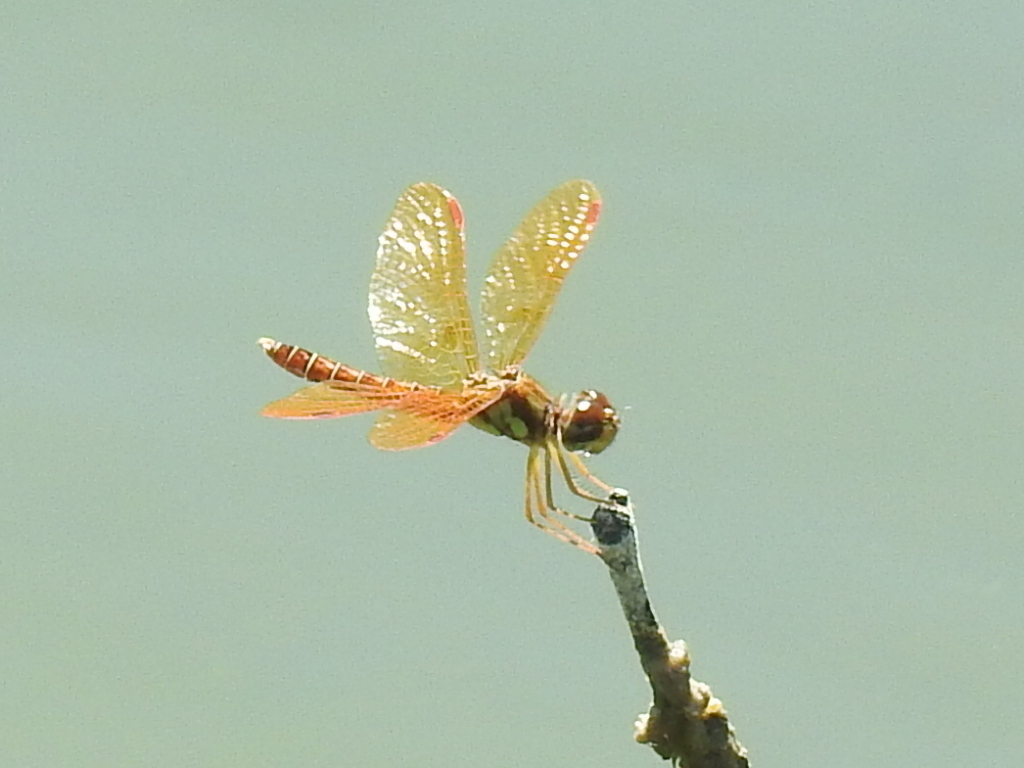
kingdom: Animalia
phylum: Arthropoda
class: Insecta
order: Odonata
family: Libellulidae
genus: Perithemis
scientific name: Perithemis tenera
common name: Eastern amberwing
